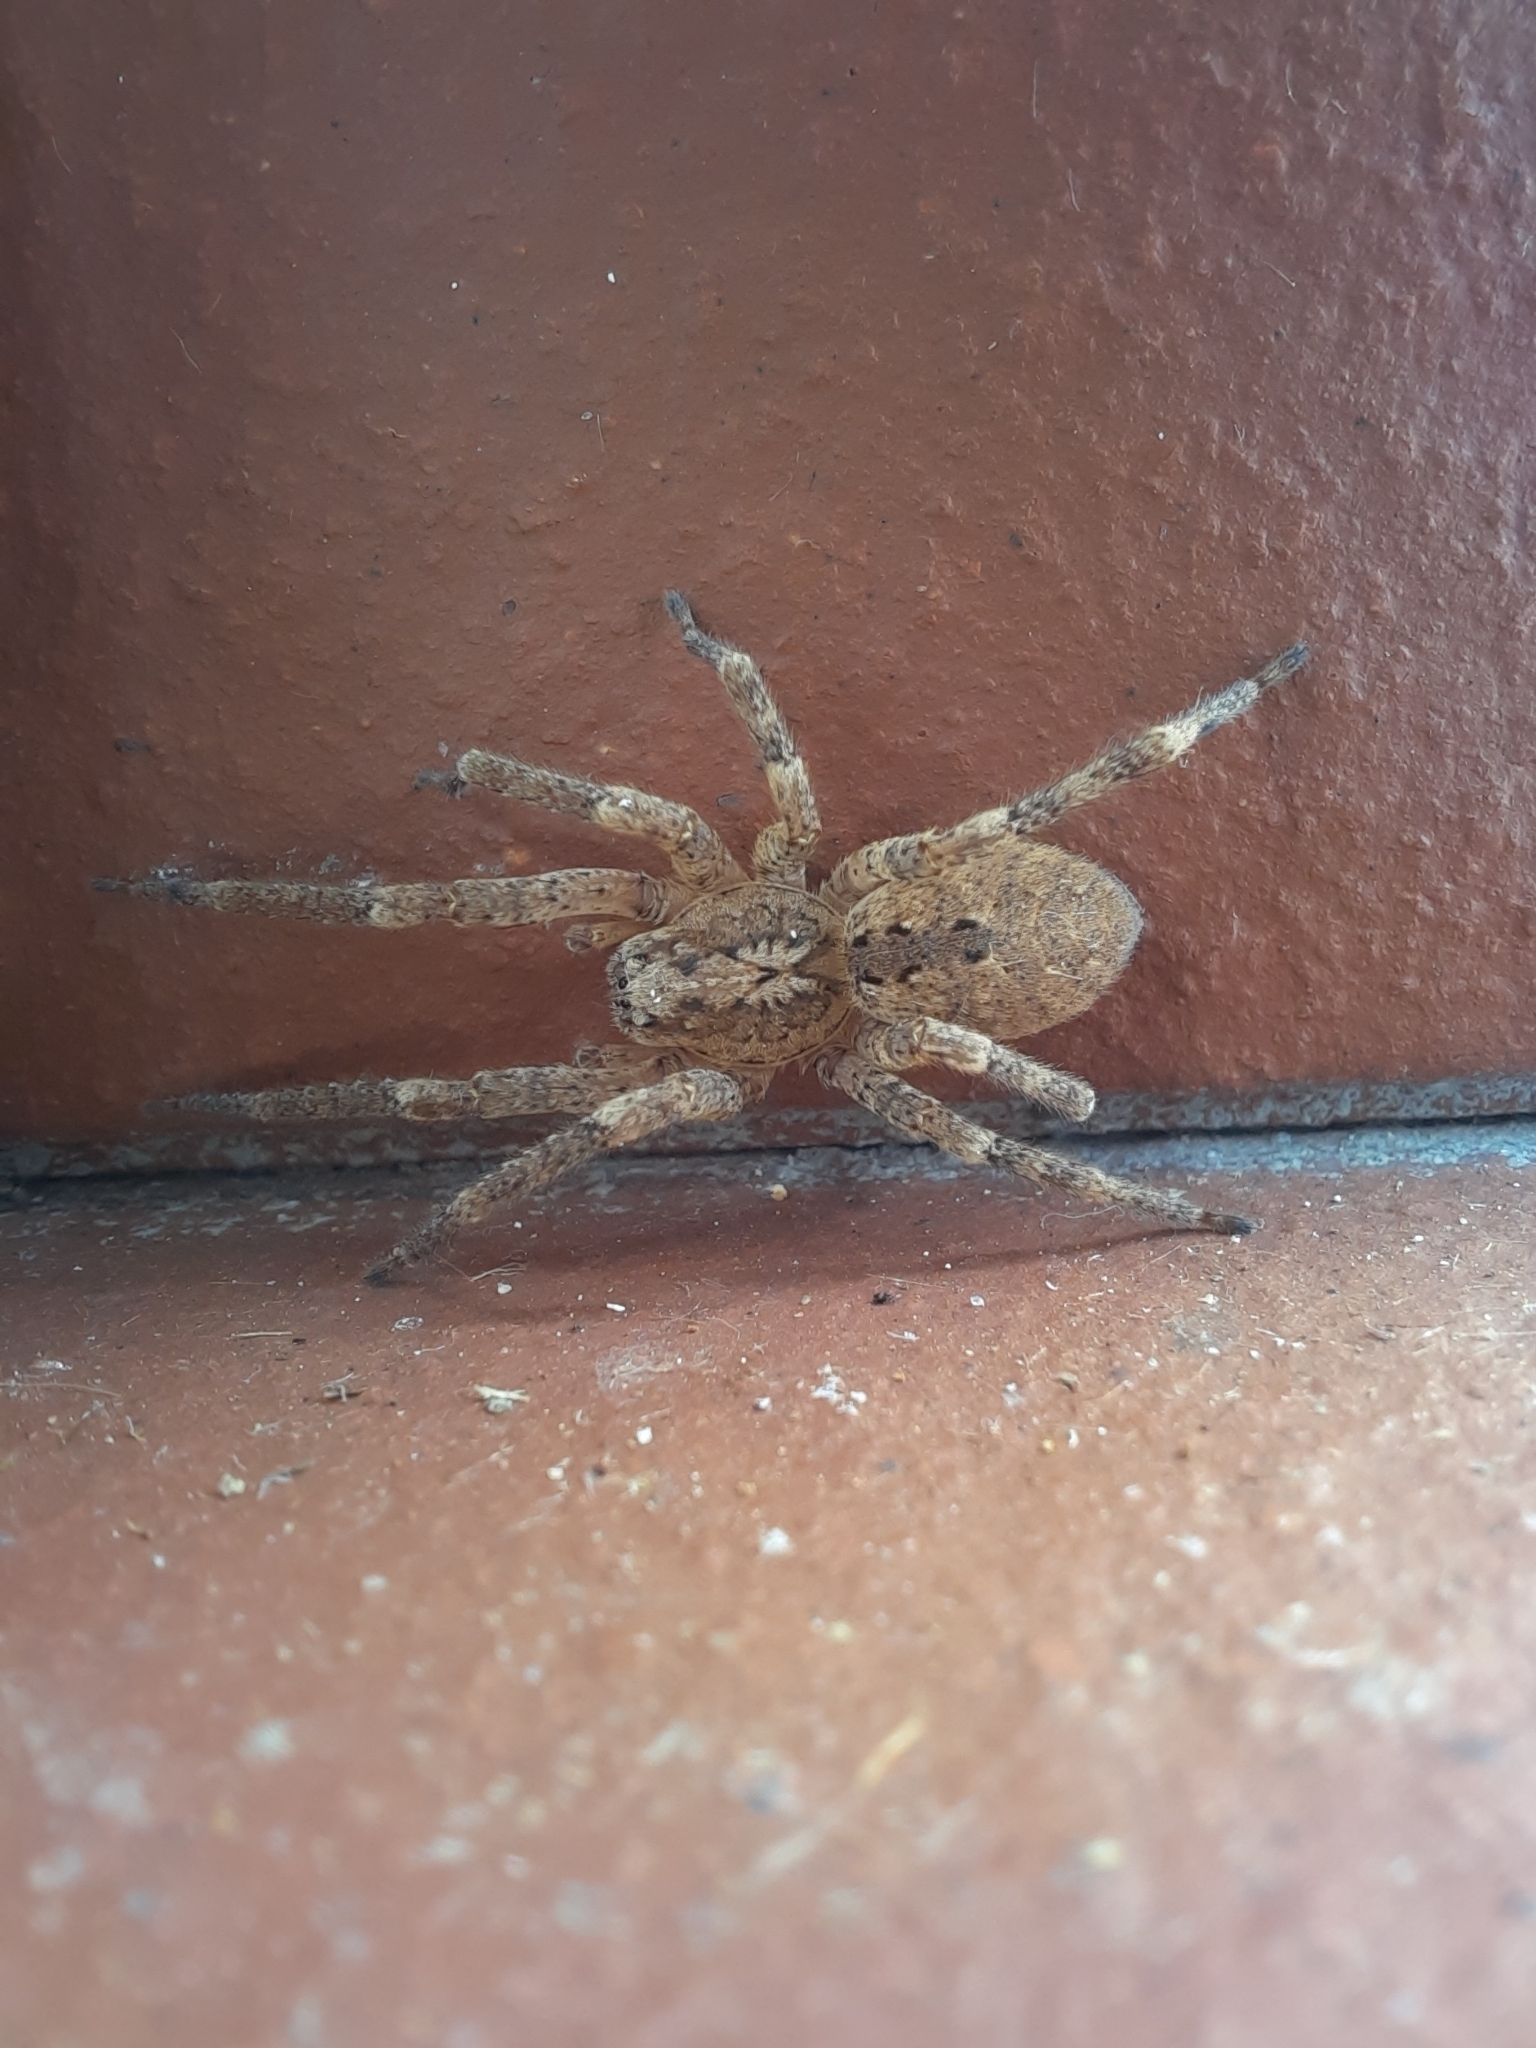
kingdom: Animalia
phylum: Arthropoda
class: Arachnida
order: Araneae
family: Zoropsidae
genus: Zoropsis
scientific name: Zoropsis spinimana
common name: Zoropsid spider
